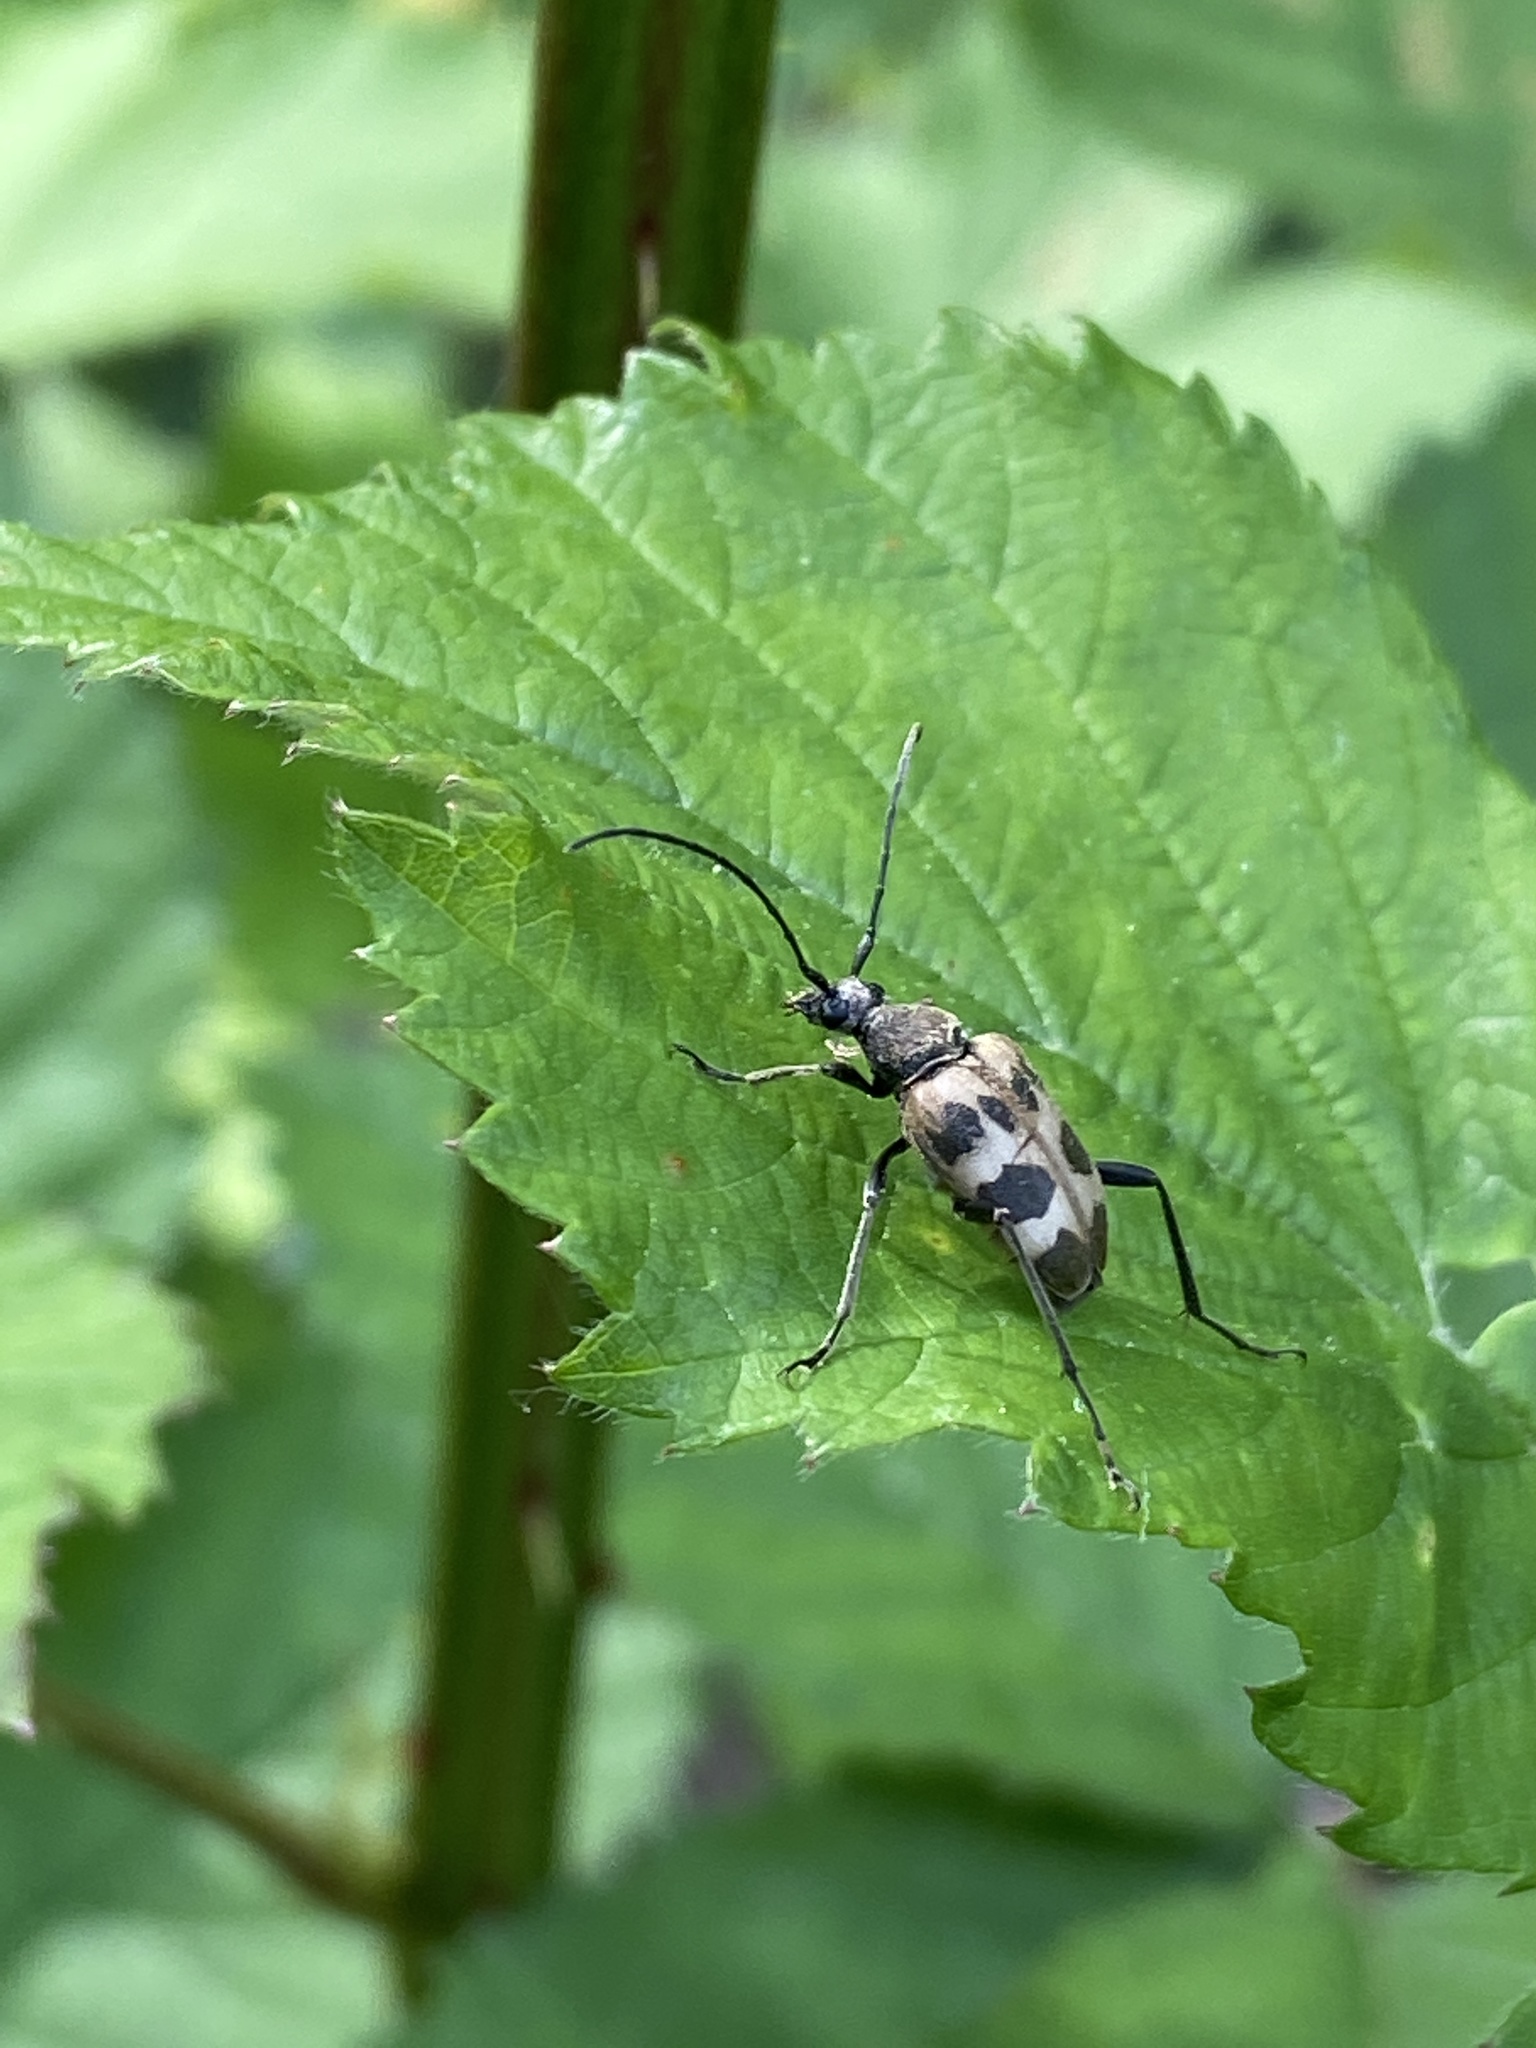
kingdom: Animalia
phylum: Arthropoda
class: Insecta
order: Coleoptera
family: Cerambycidae
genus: Pachytodes
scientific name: Pachytodes cerambyciformis
